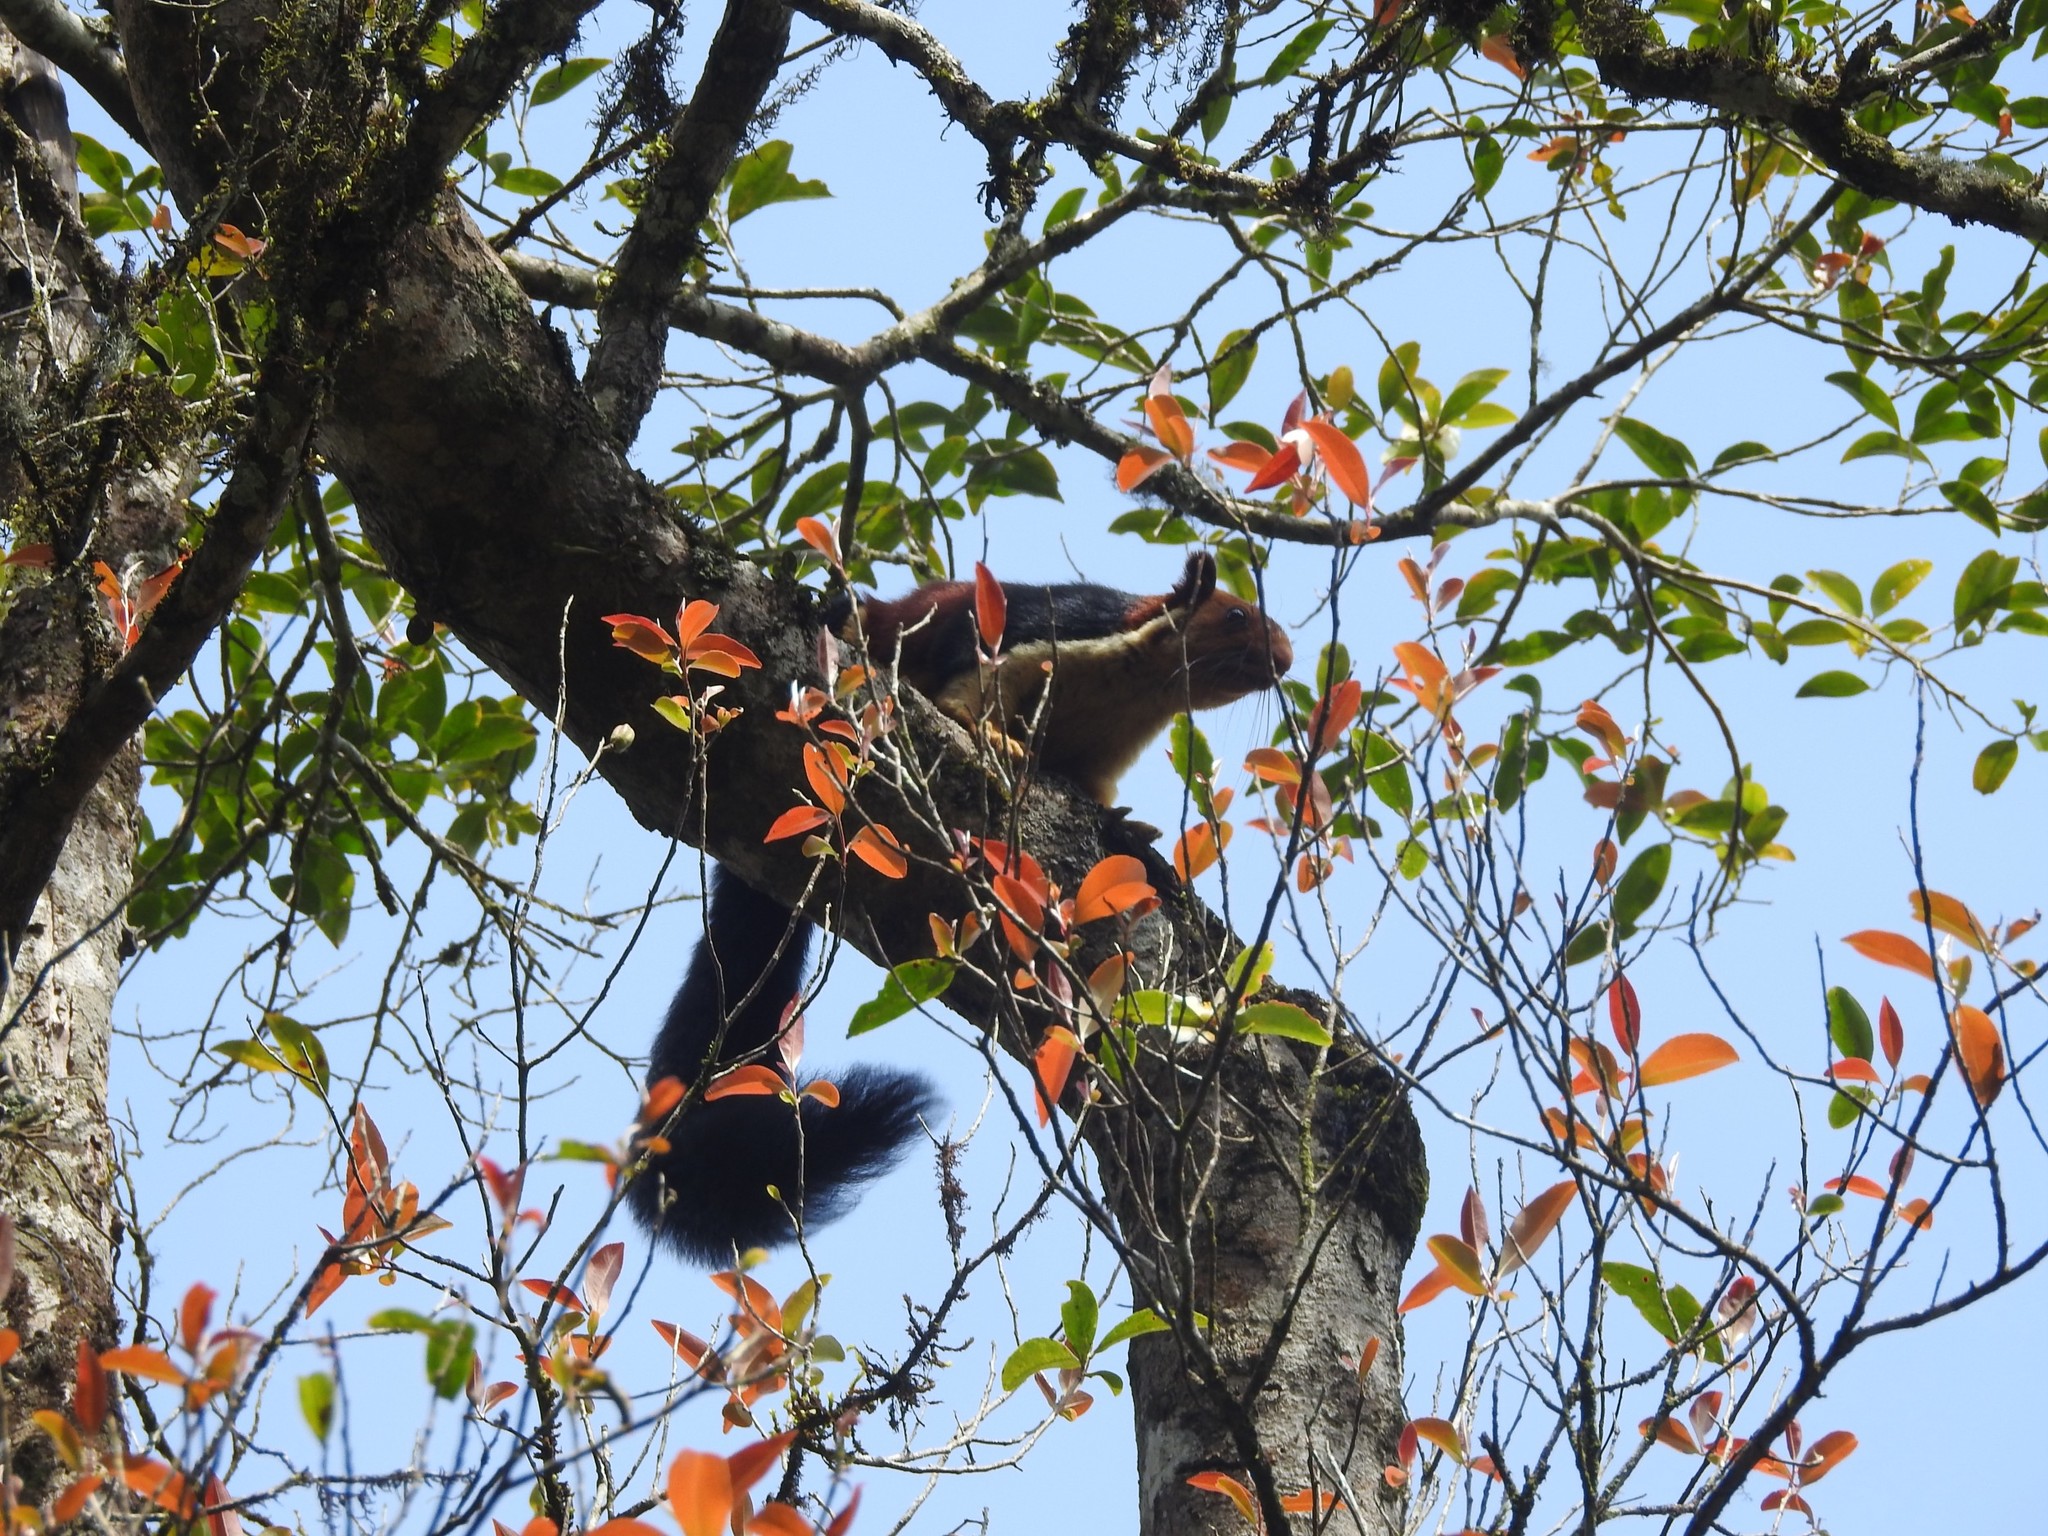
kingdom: Animalia
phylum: Chordata
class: Mammalia
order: Rodentia
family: Sciuridae
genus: Ratufa
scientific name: Ratufa indica
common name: Indian giant squirrel
